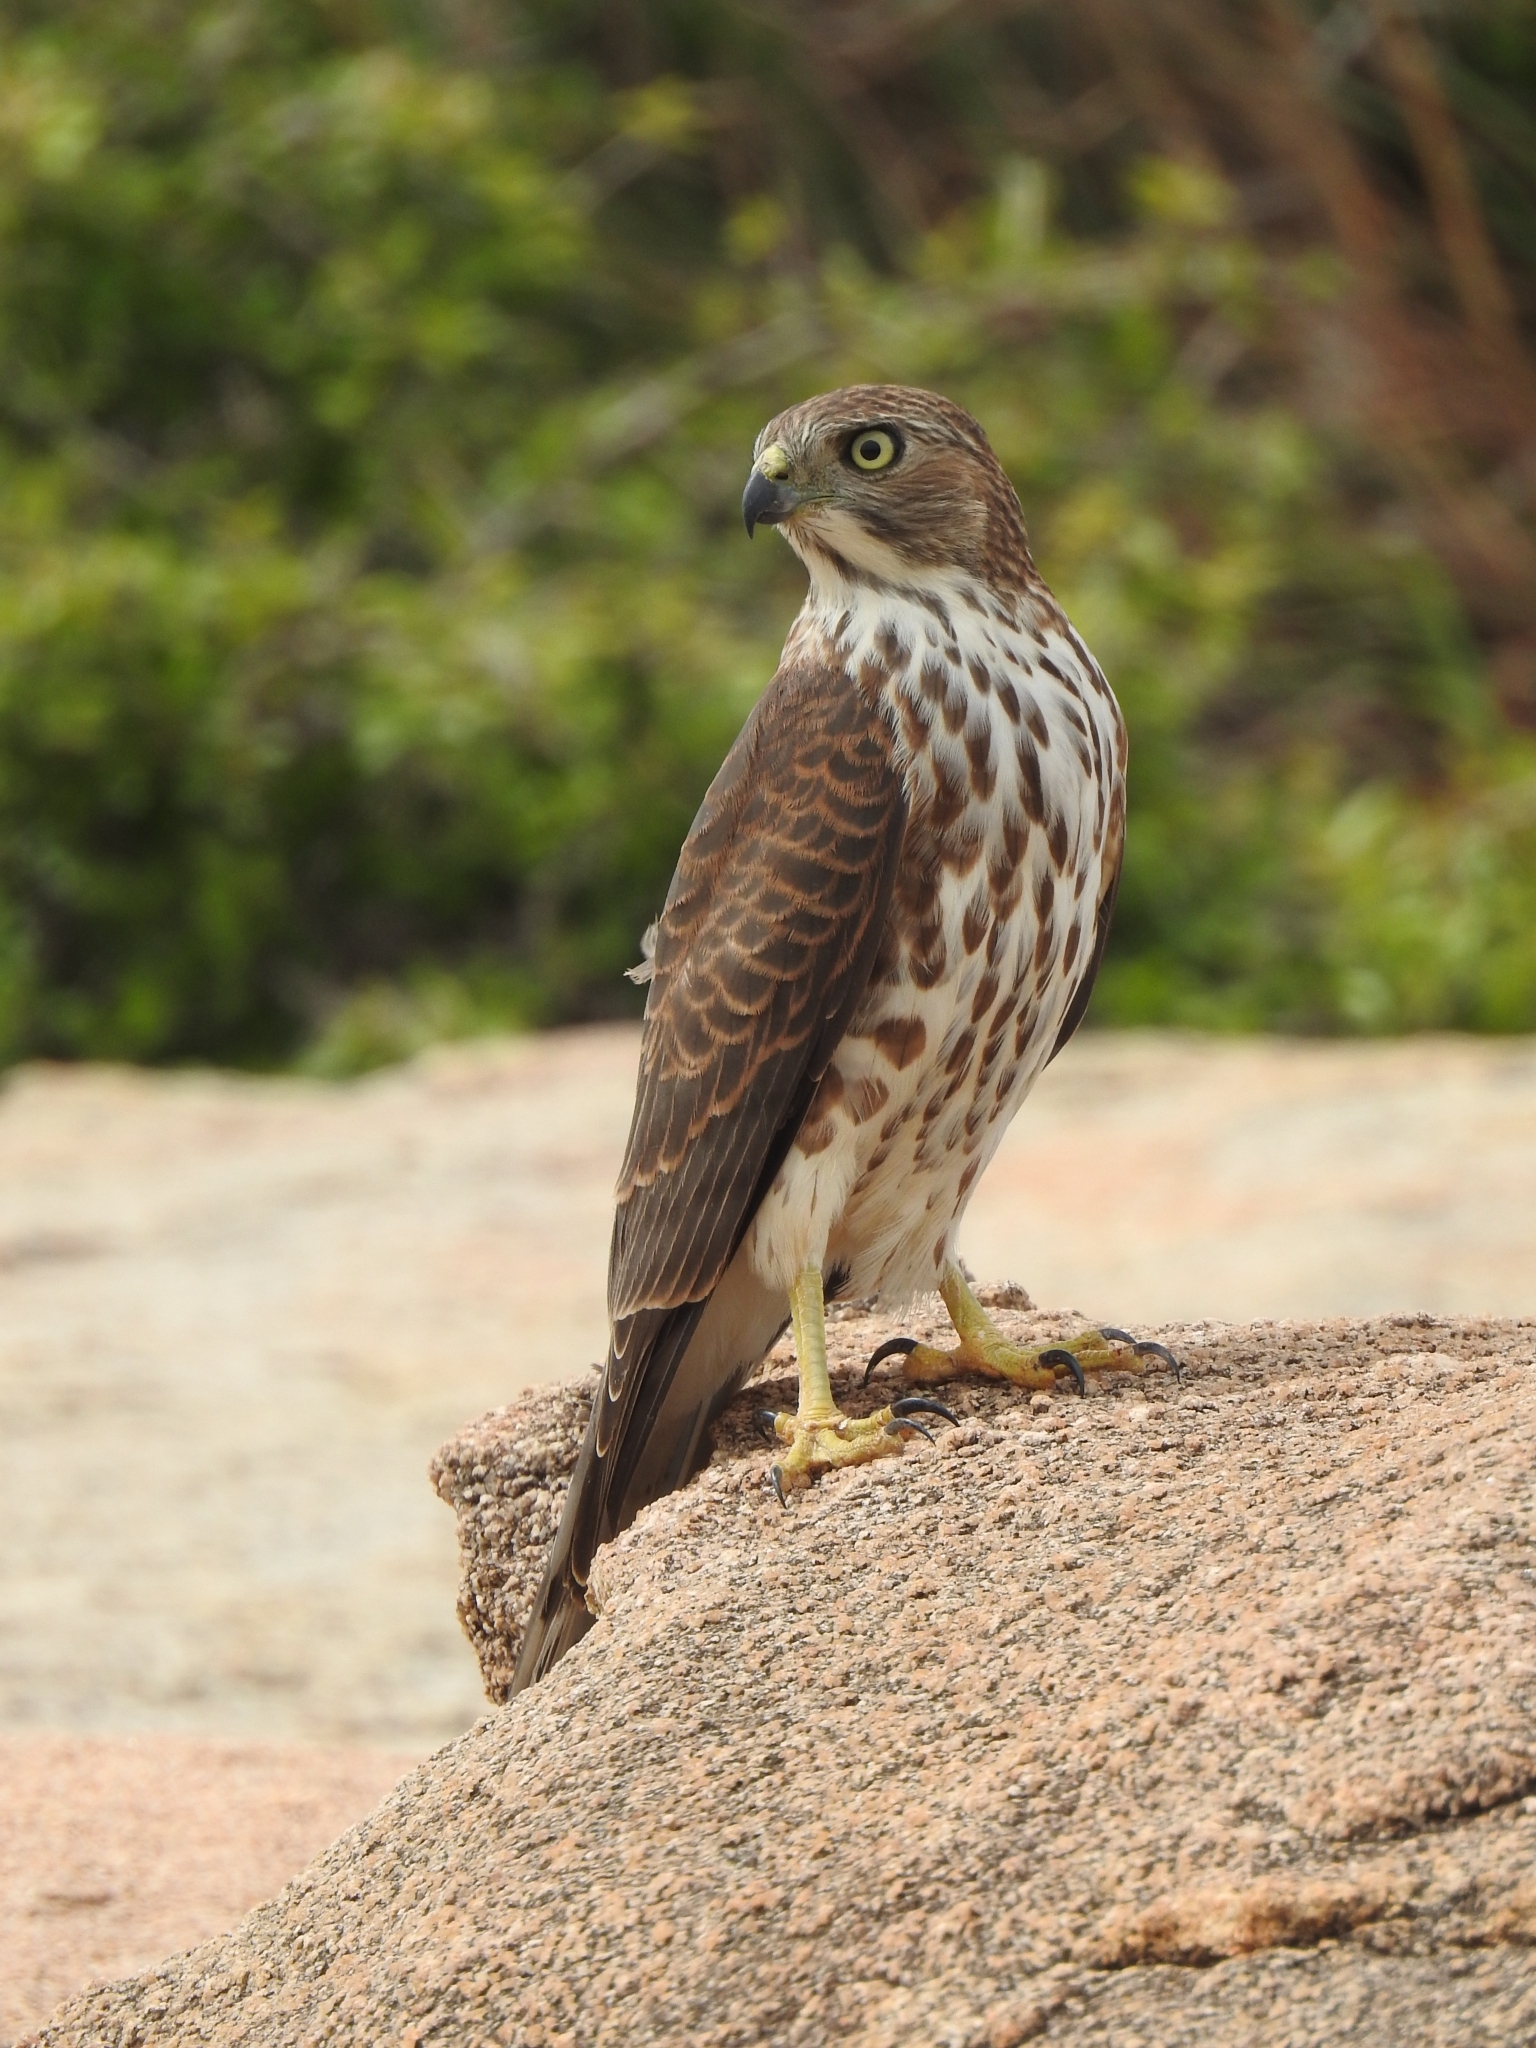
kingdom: Animalia
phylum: Chordata
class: Aves
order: Accipitriformes
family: Accipitridae
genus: Accipiter
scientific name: Accipiter badius
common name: Shikra
